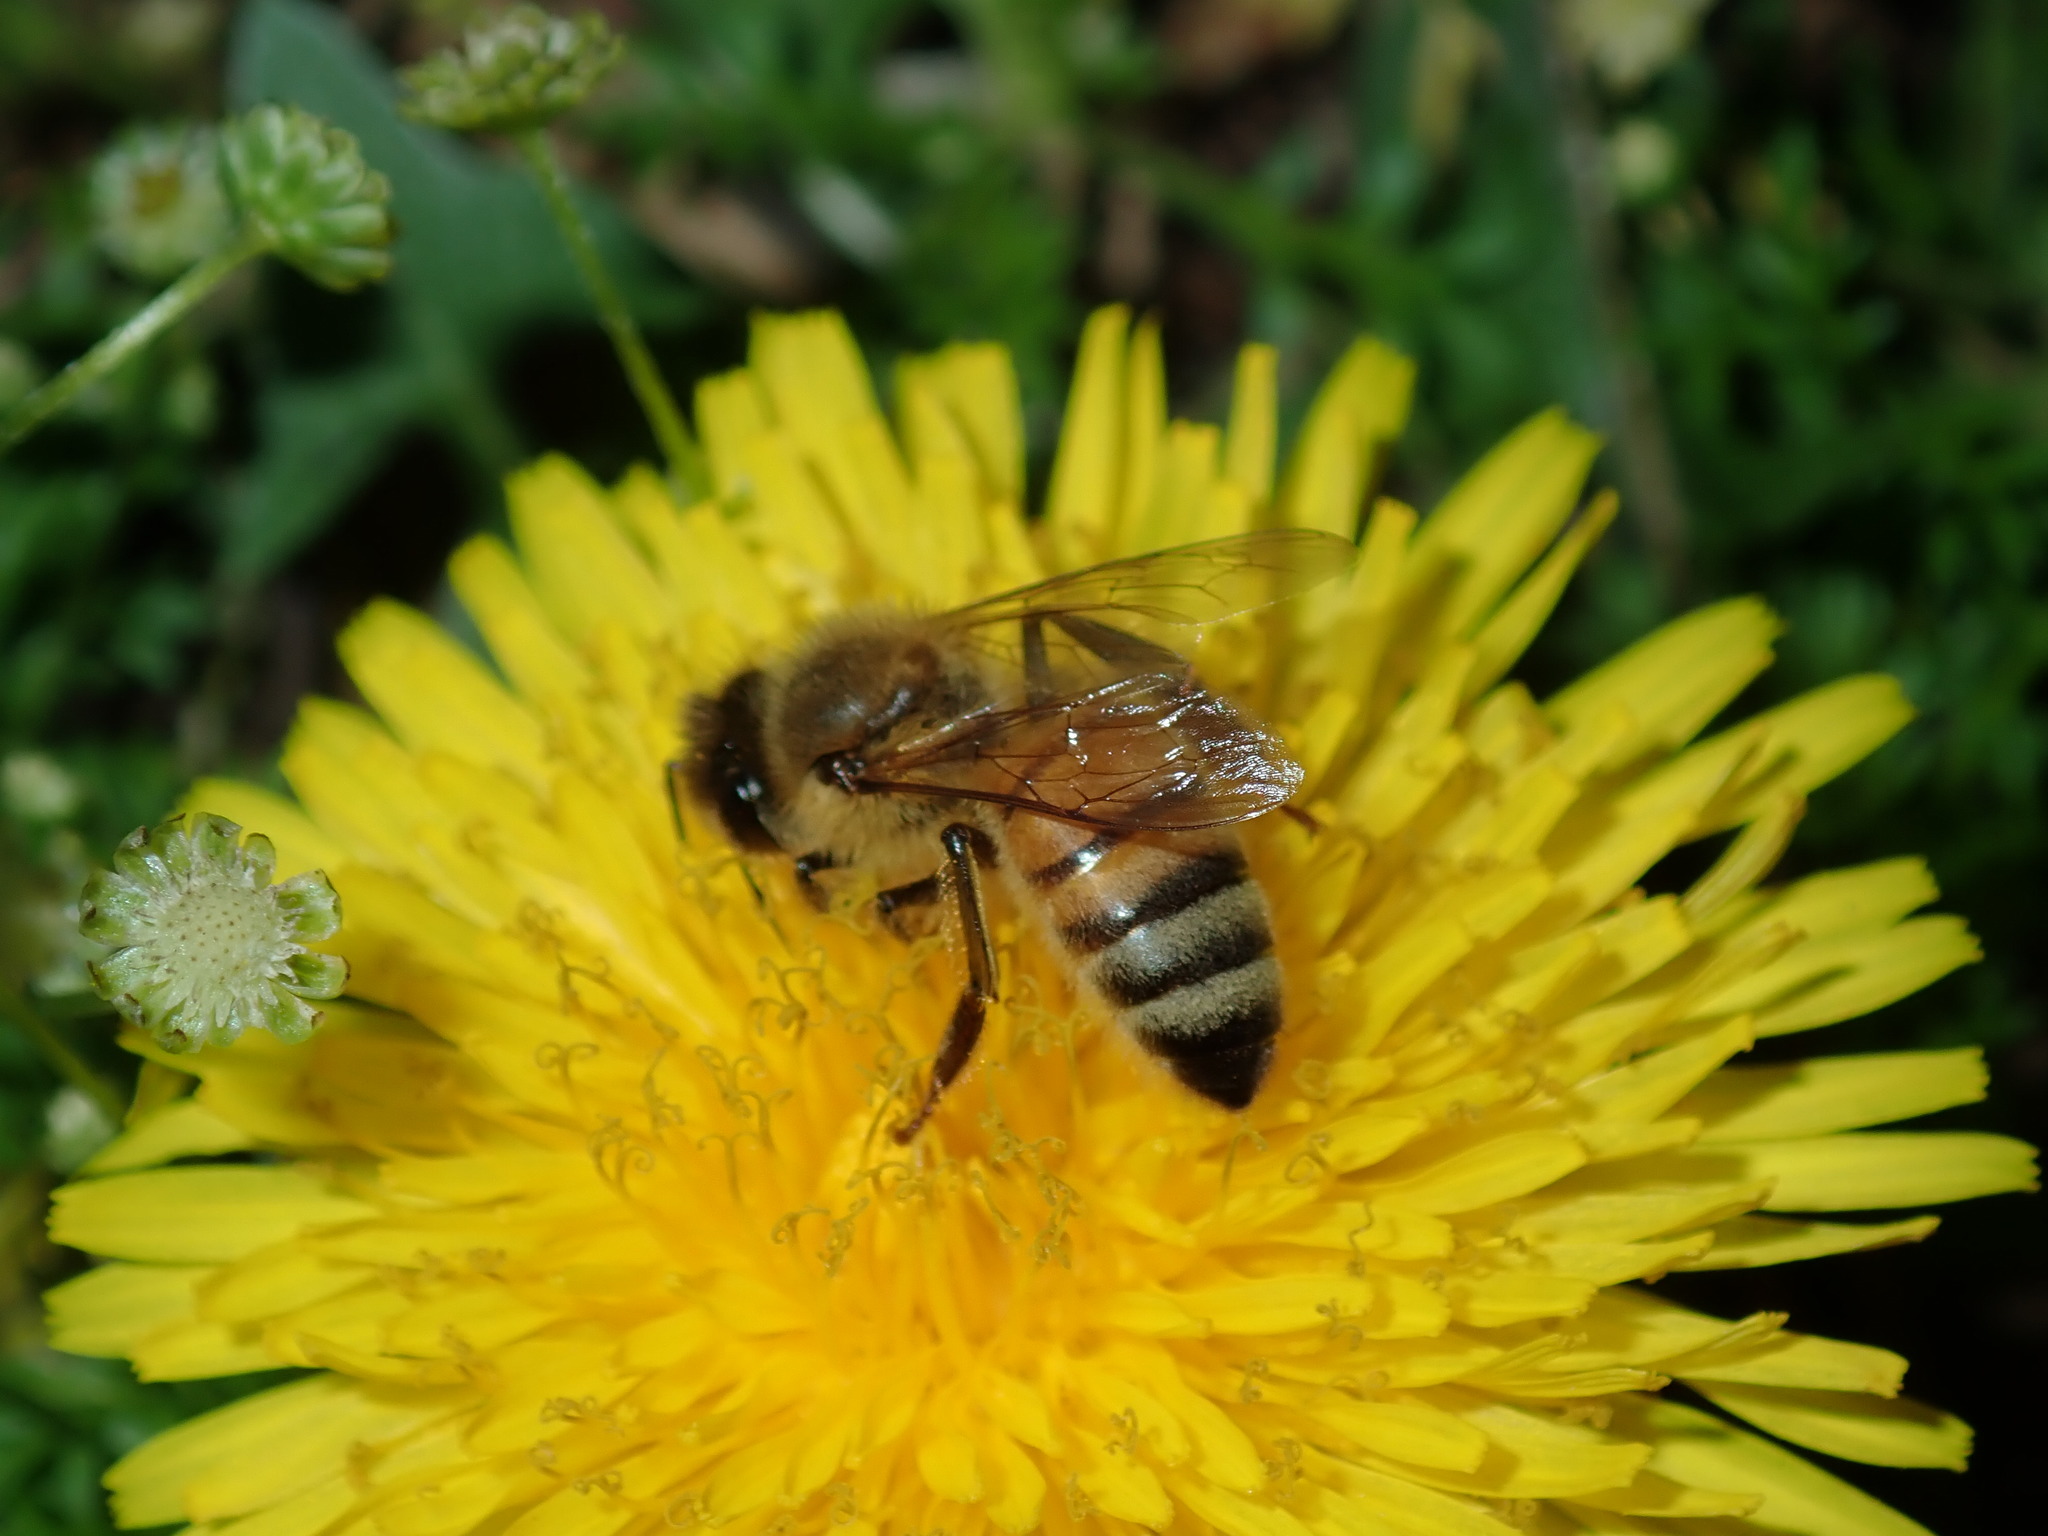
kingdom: Animalia
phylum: Arthropoda
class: Insecta
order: Hymenoptera
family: Apidae
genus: Apis
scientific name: Apis mellifera
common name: Honey bee
